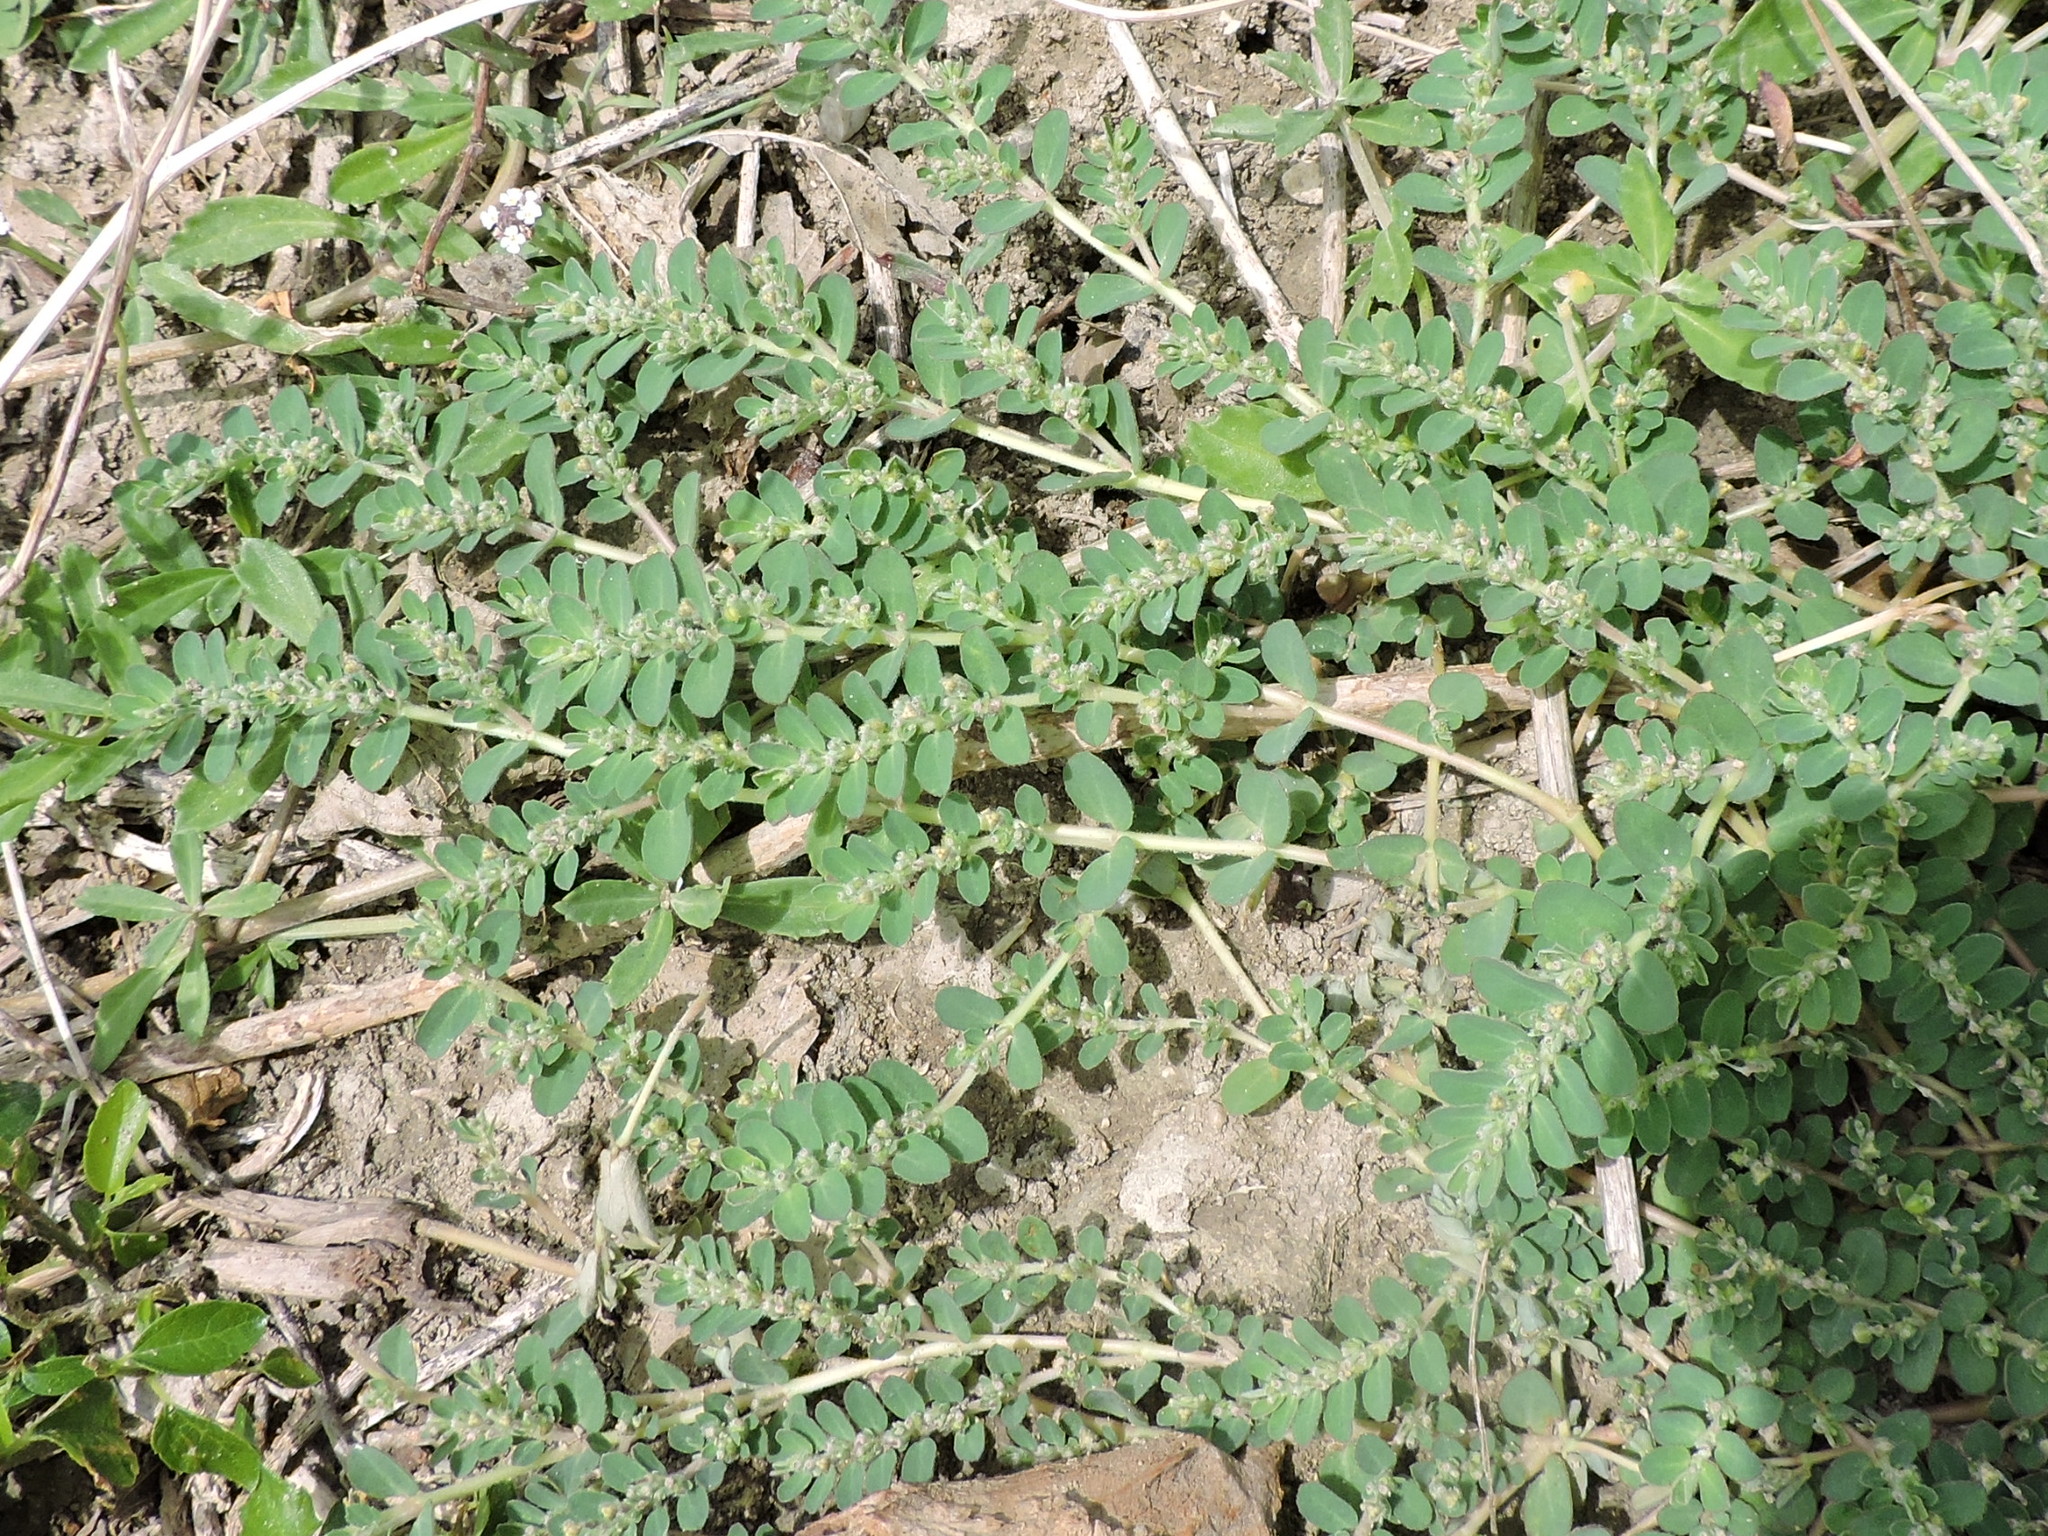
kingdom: Plantae
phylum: Tracheophyta
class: Magnoliopsida
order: Malpighiales
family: Euphorbiaceae
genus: Euphorbia
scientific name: Euphorbia prostrata
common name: Prostrate sandmat
